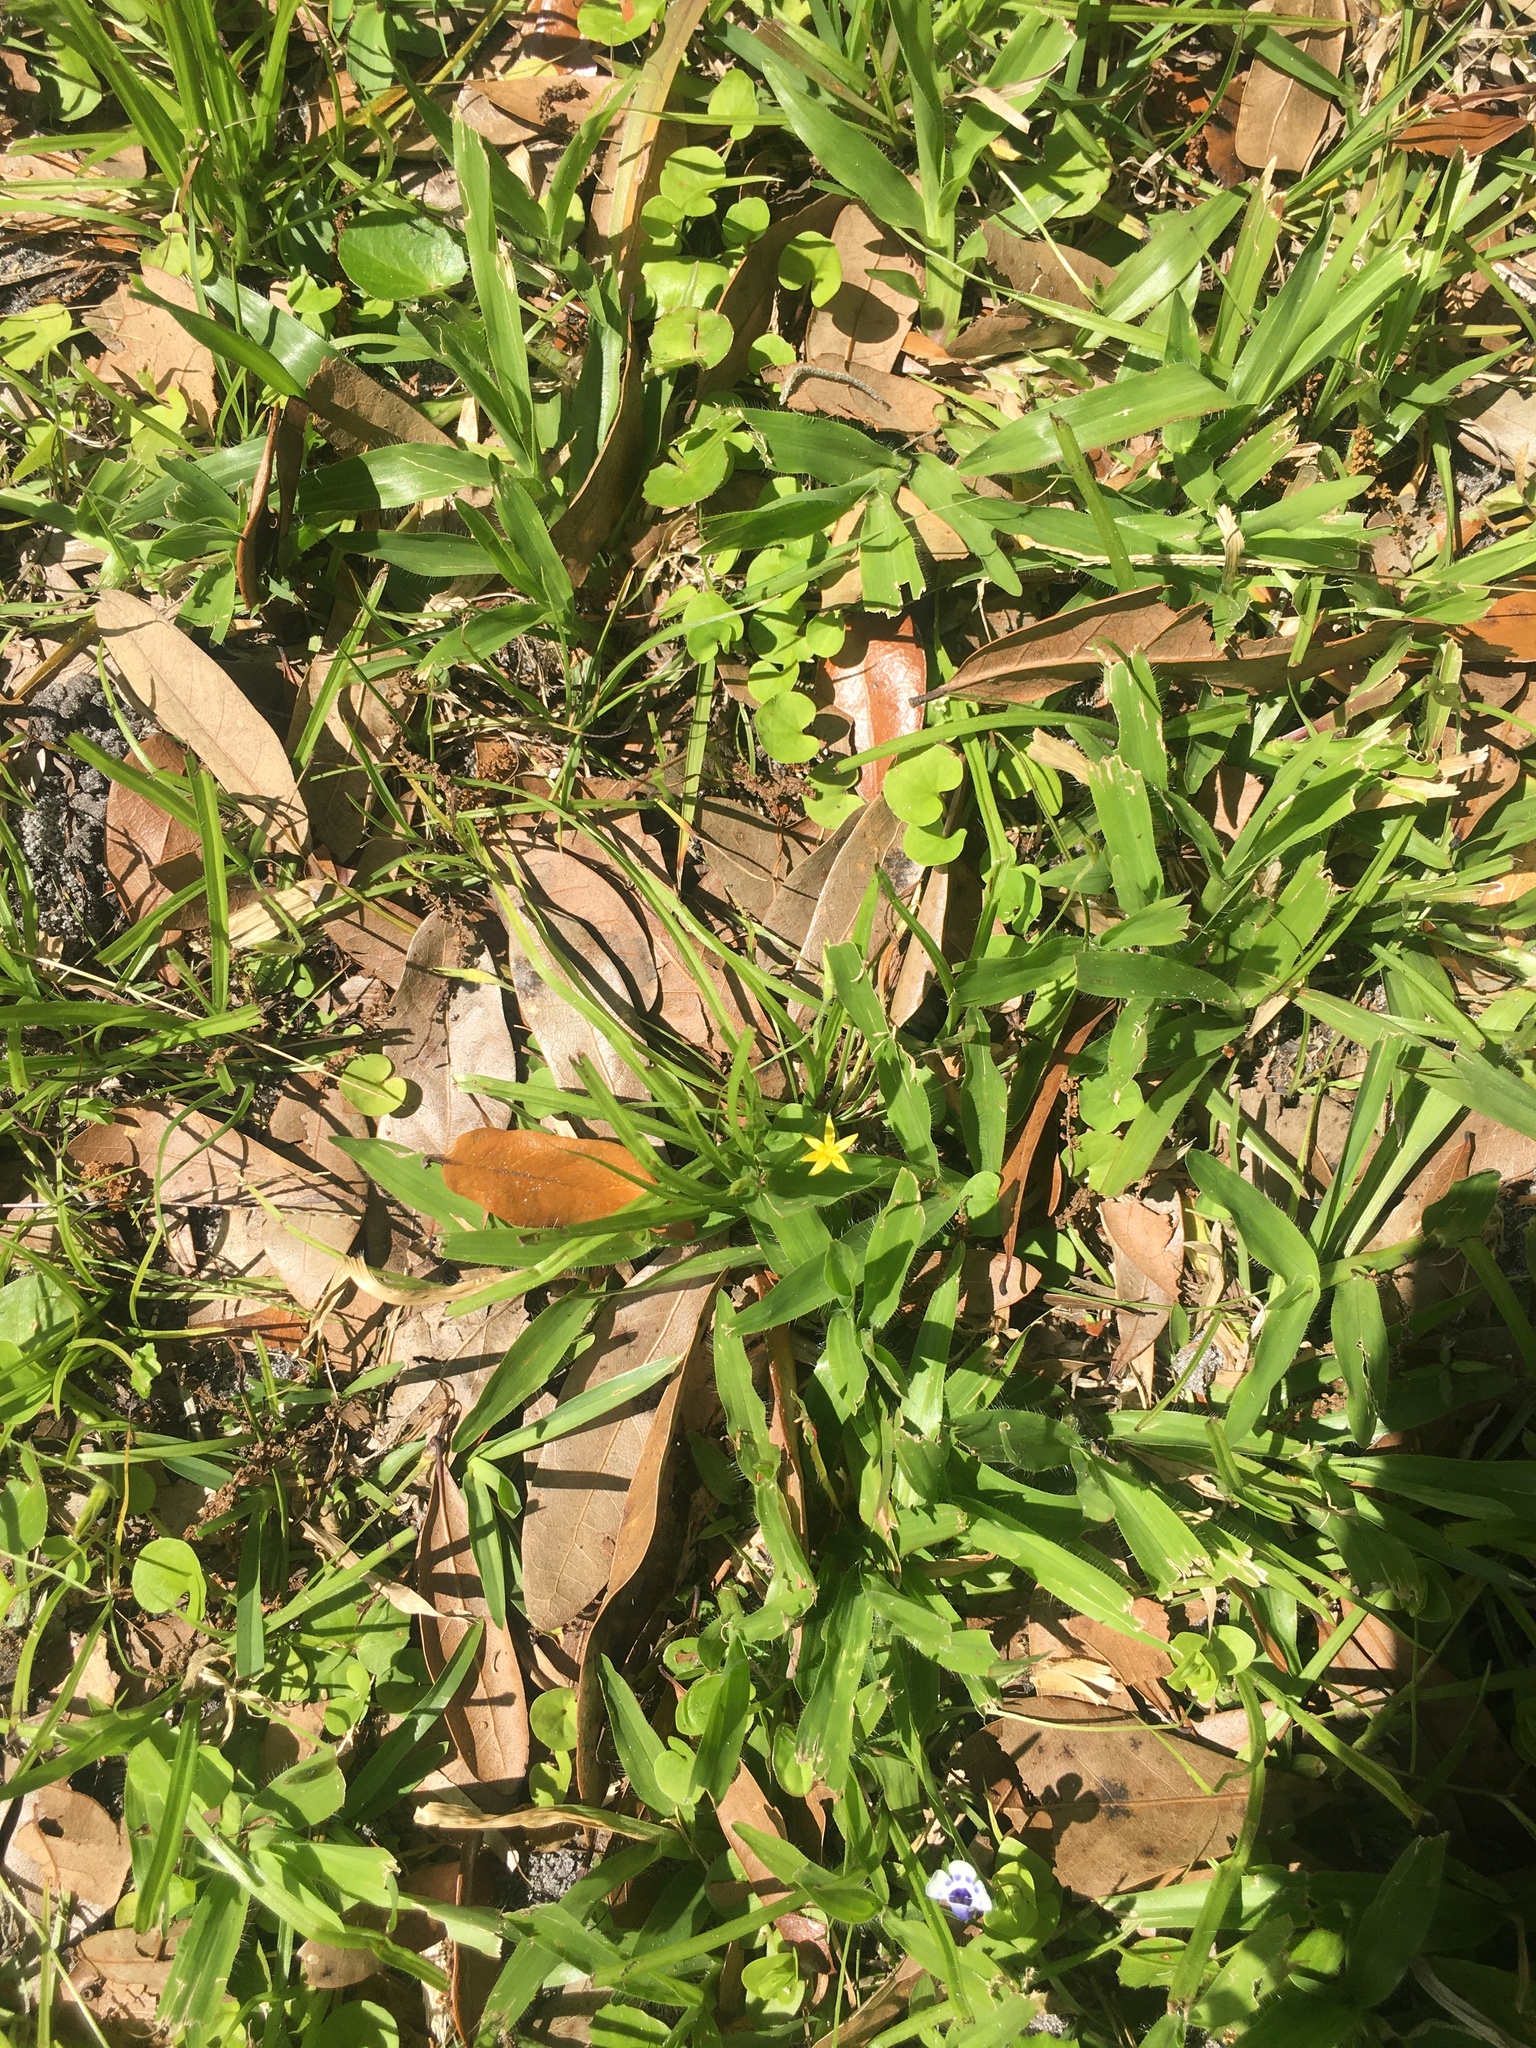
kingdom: Plantae
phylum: Tracheophyta
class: Liliopsida
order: Asparagales
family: Iridaceae
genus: Sisyrinchium
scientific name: Sisyrinchium micranthum
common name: Bermuda pigroot
